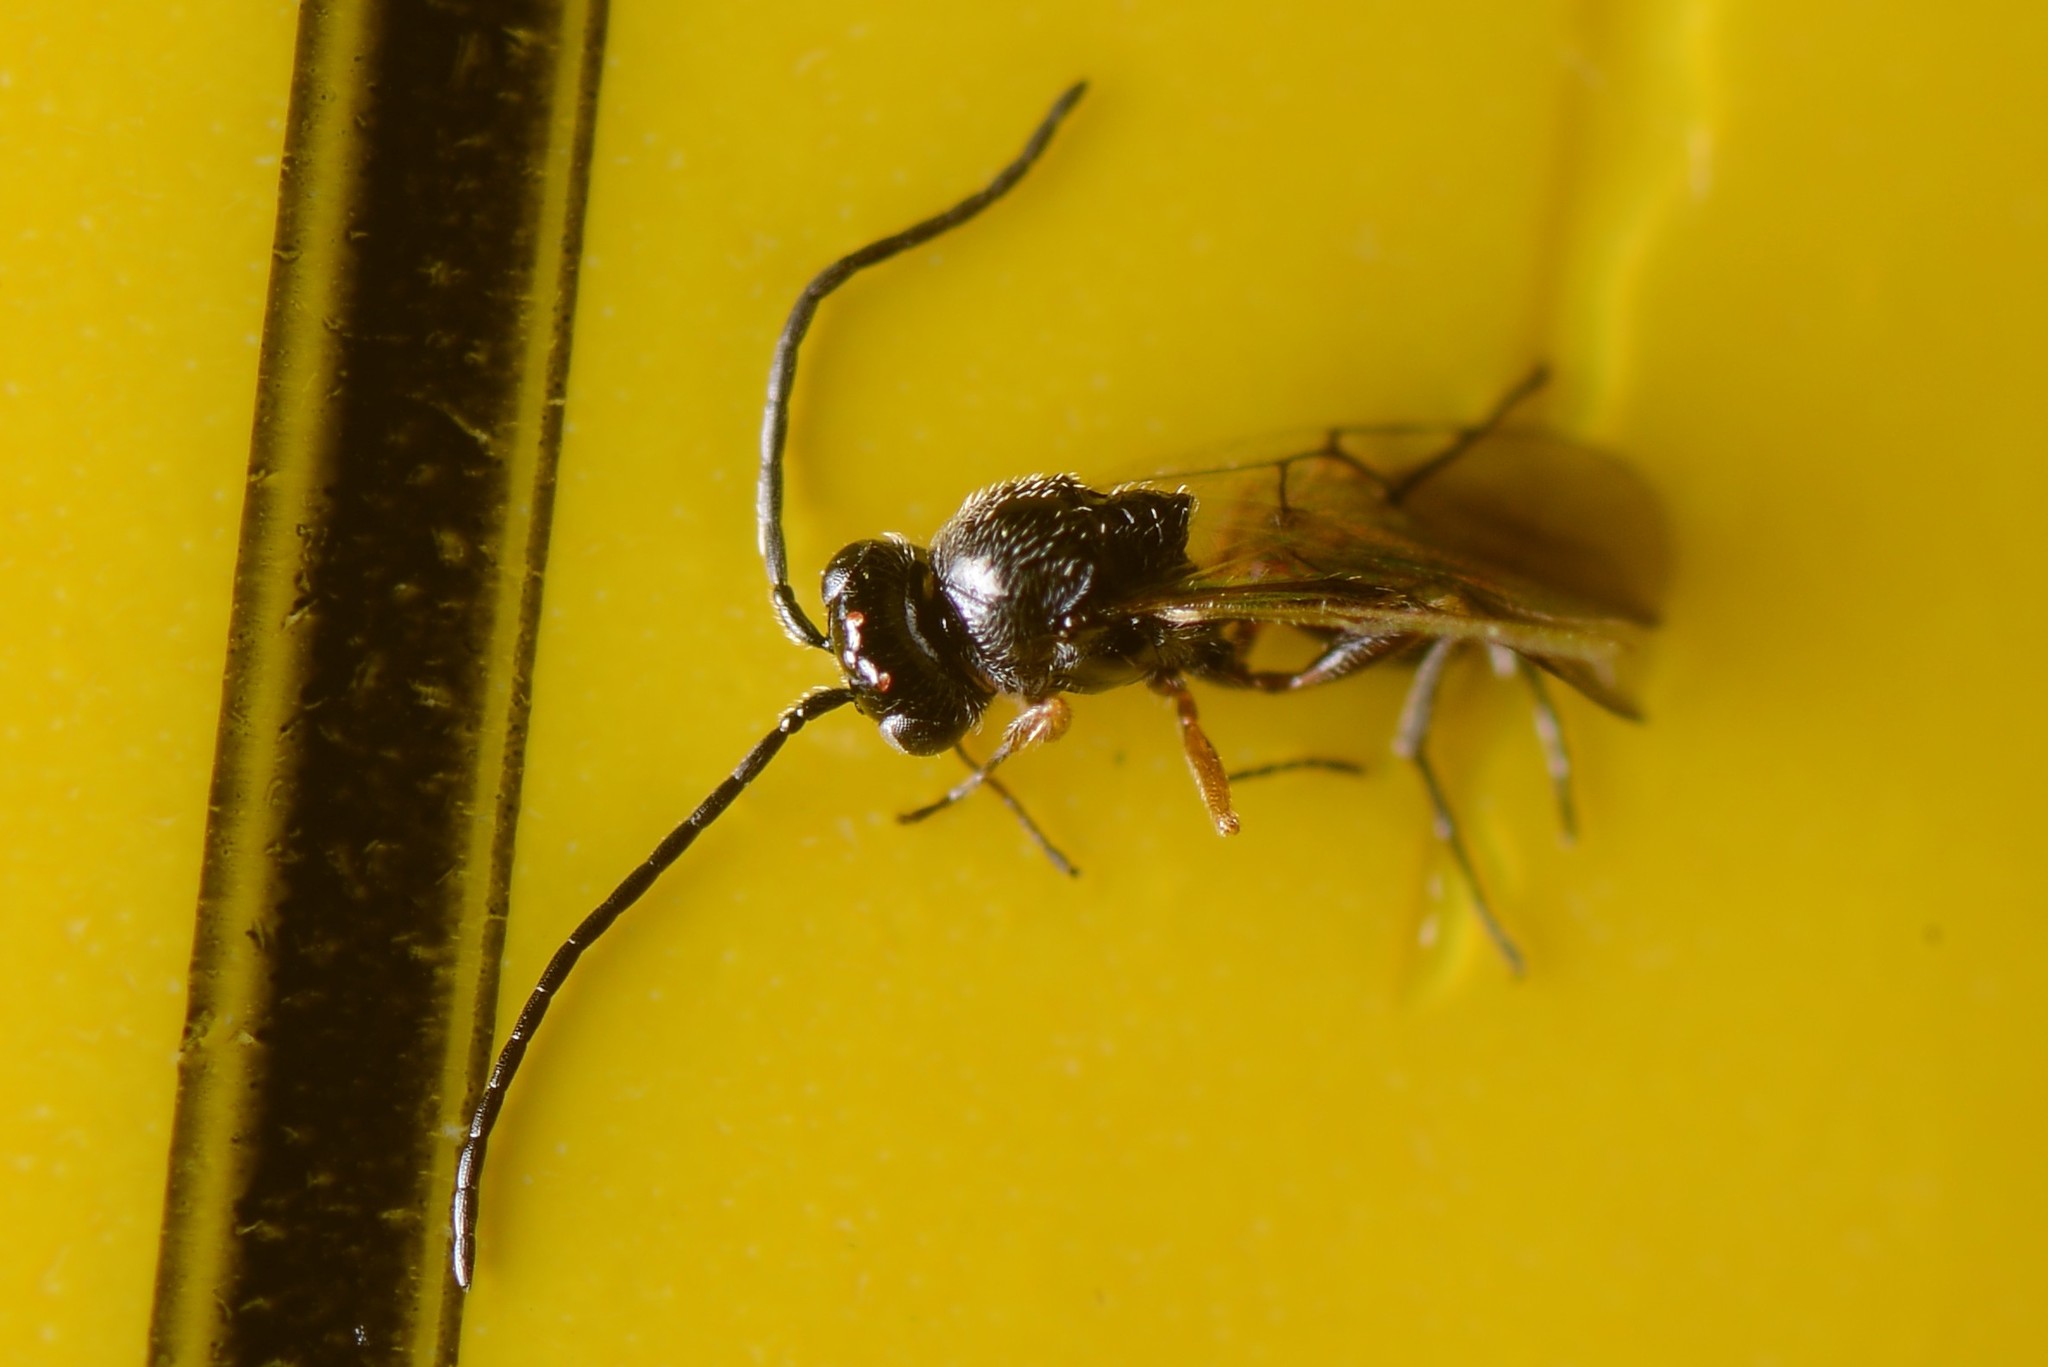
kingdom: Animalia
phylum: Arthropoda
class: Insecta
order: Hymenoptera
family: Figitidae
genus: Anacharis
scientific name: Anacharis zealandica
